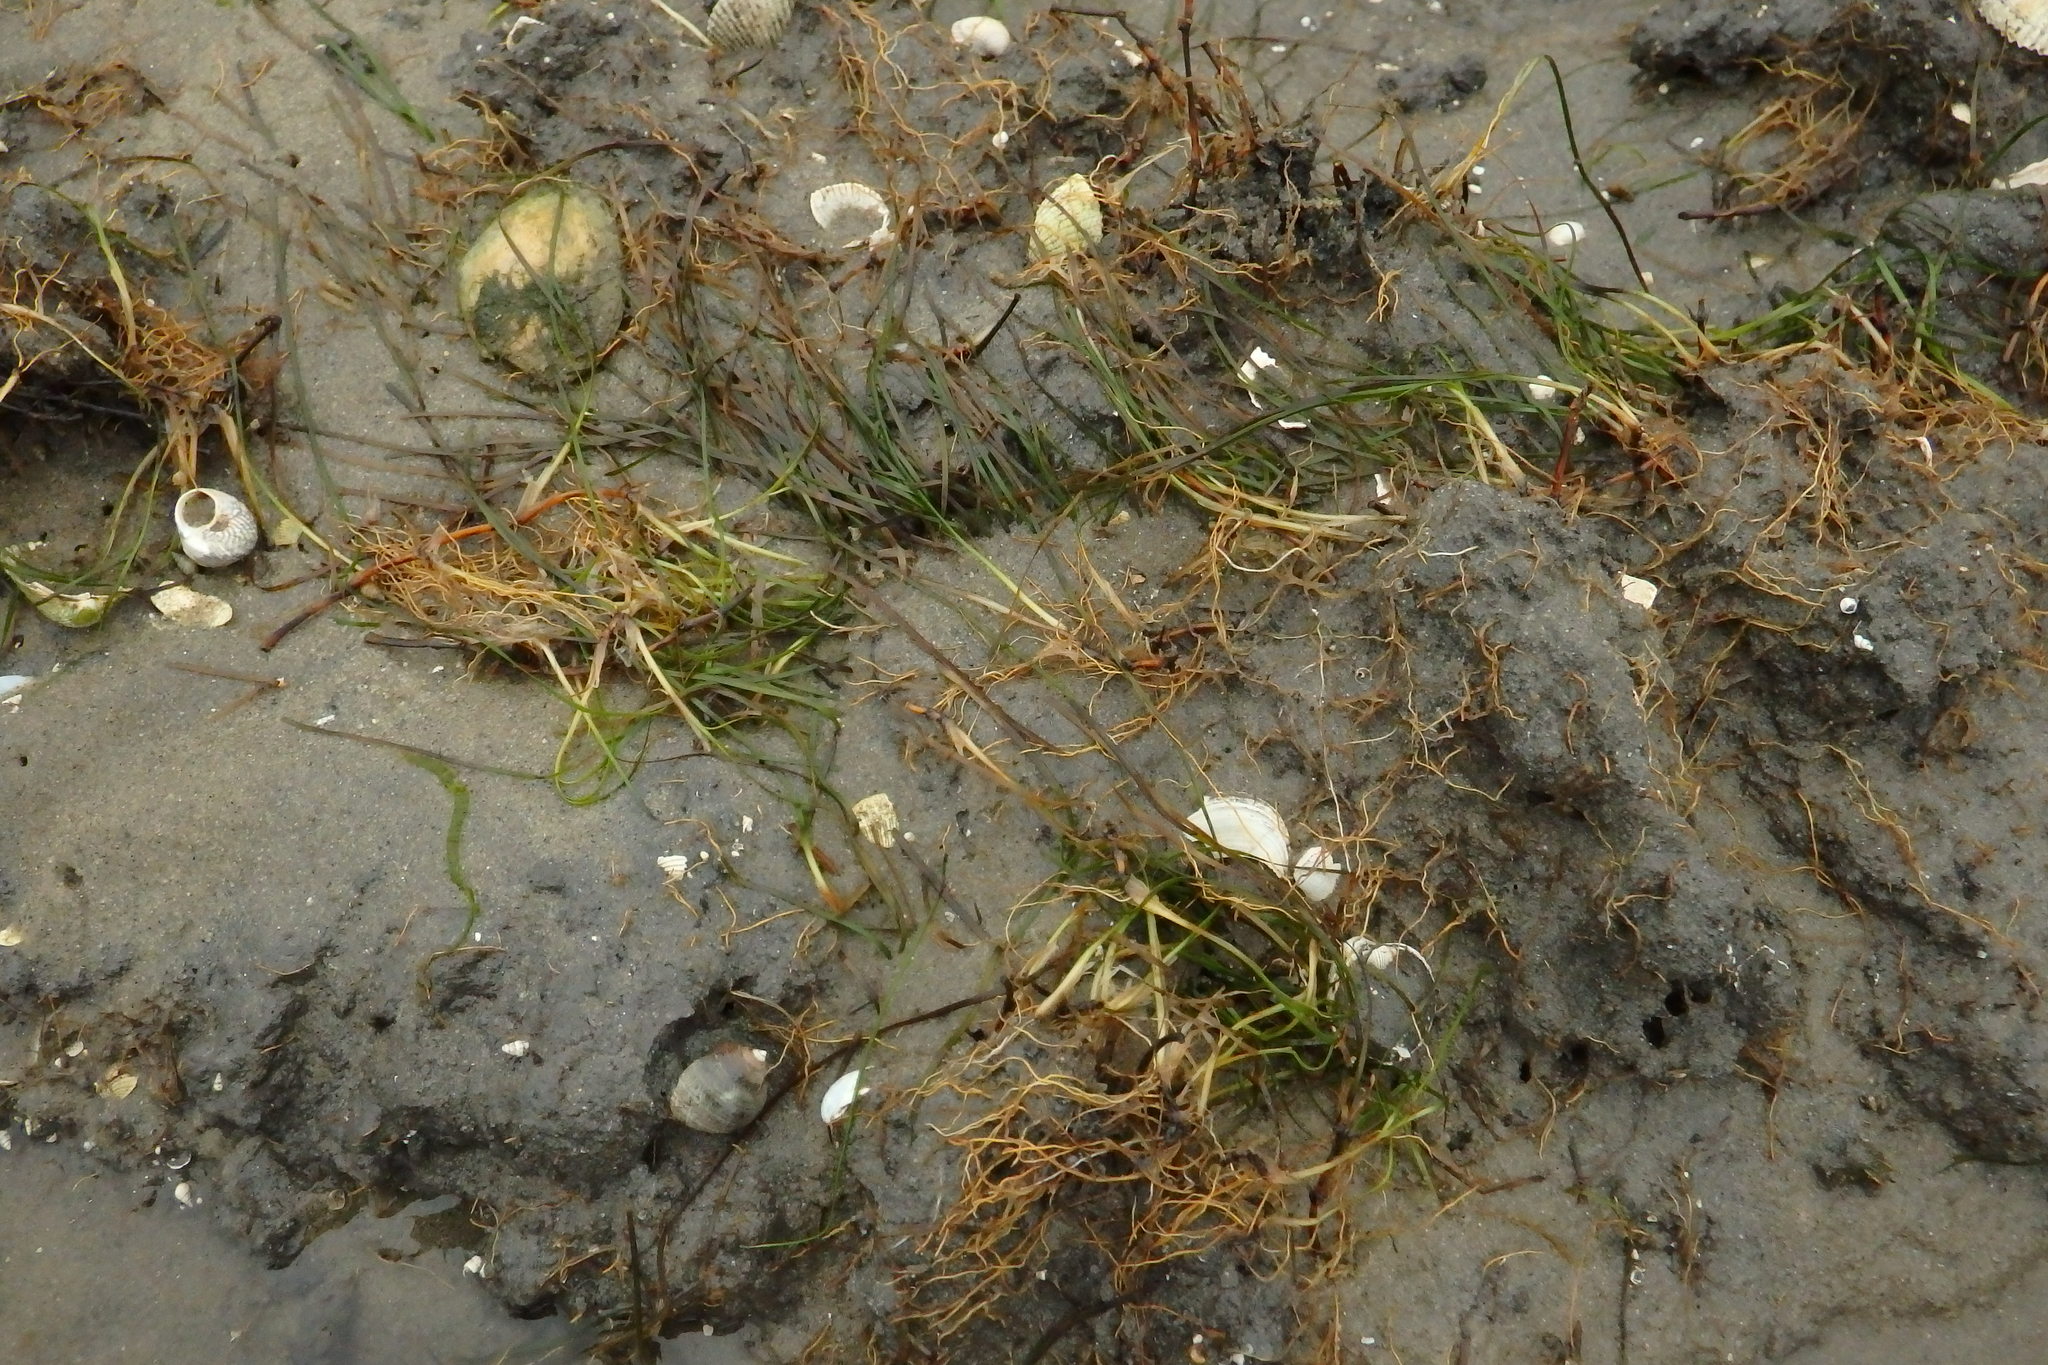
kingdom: Plantae
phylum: Tracheophyta
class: Liliopsida
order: Alismatales
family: Zosteraceae
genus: Zostera
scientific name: Zostera noltii
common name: Dwarf eelgrass
